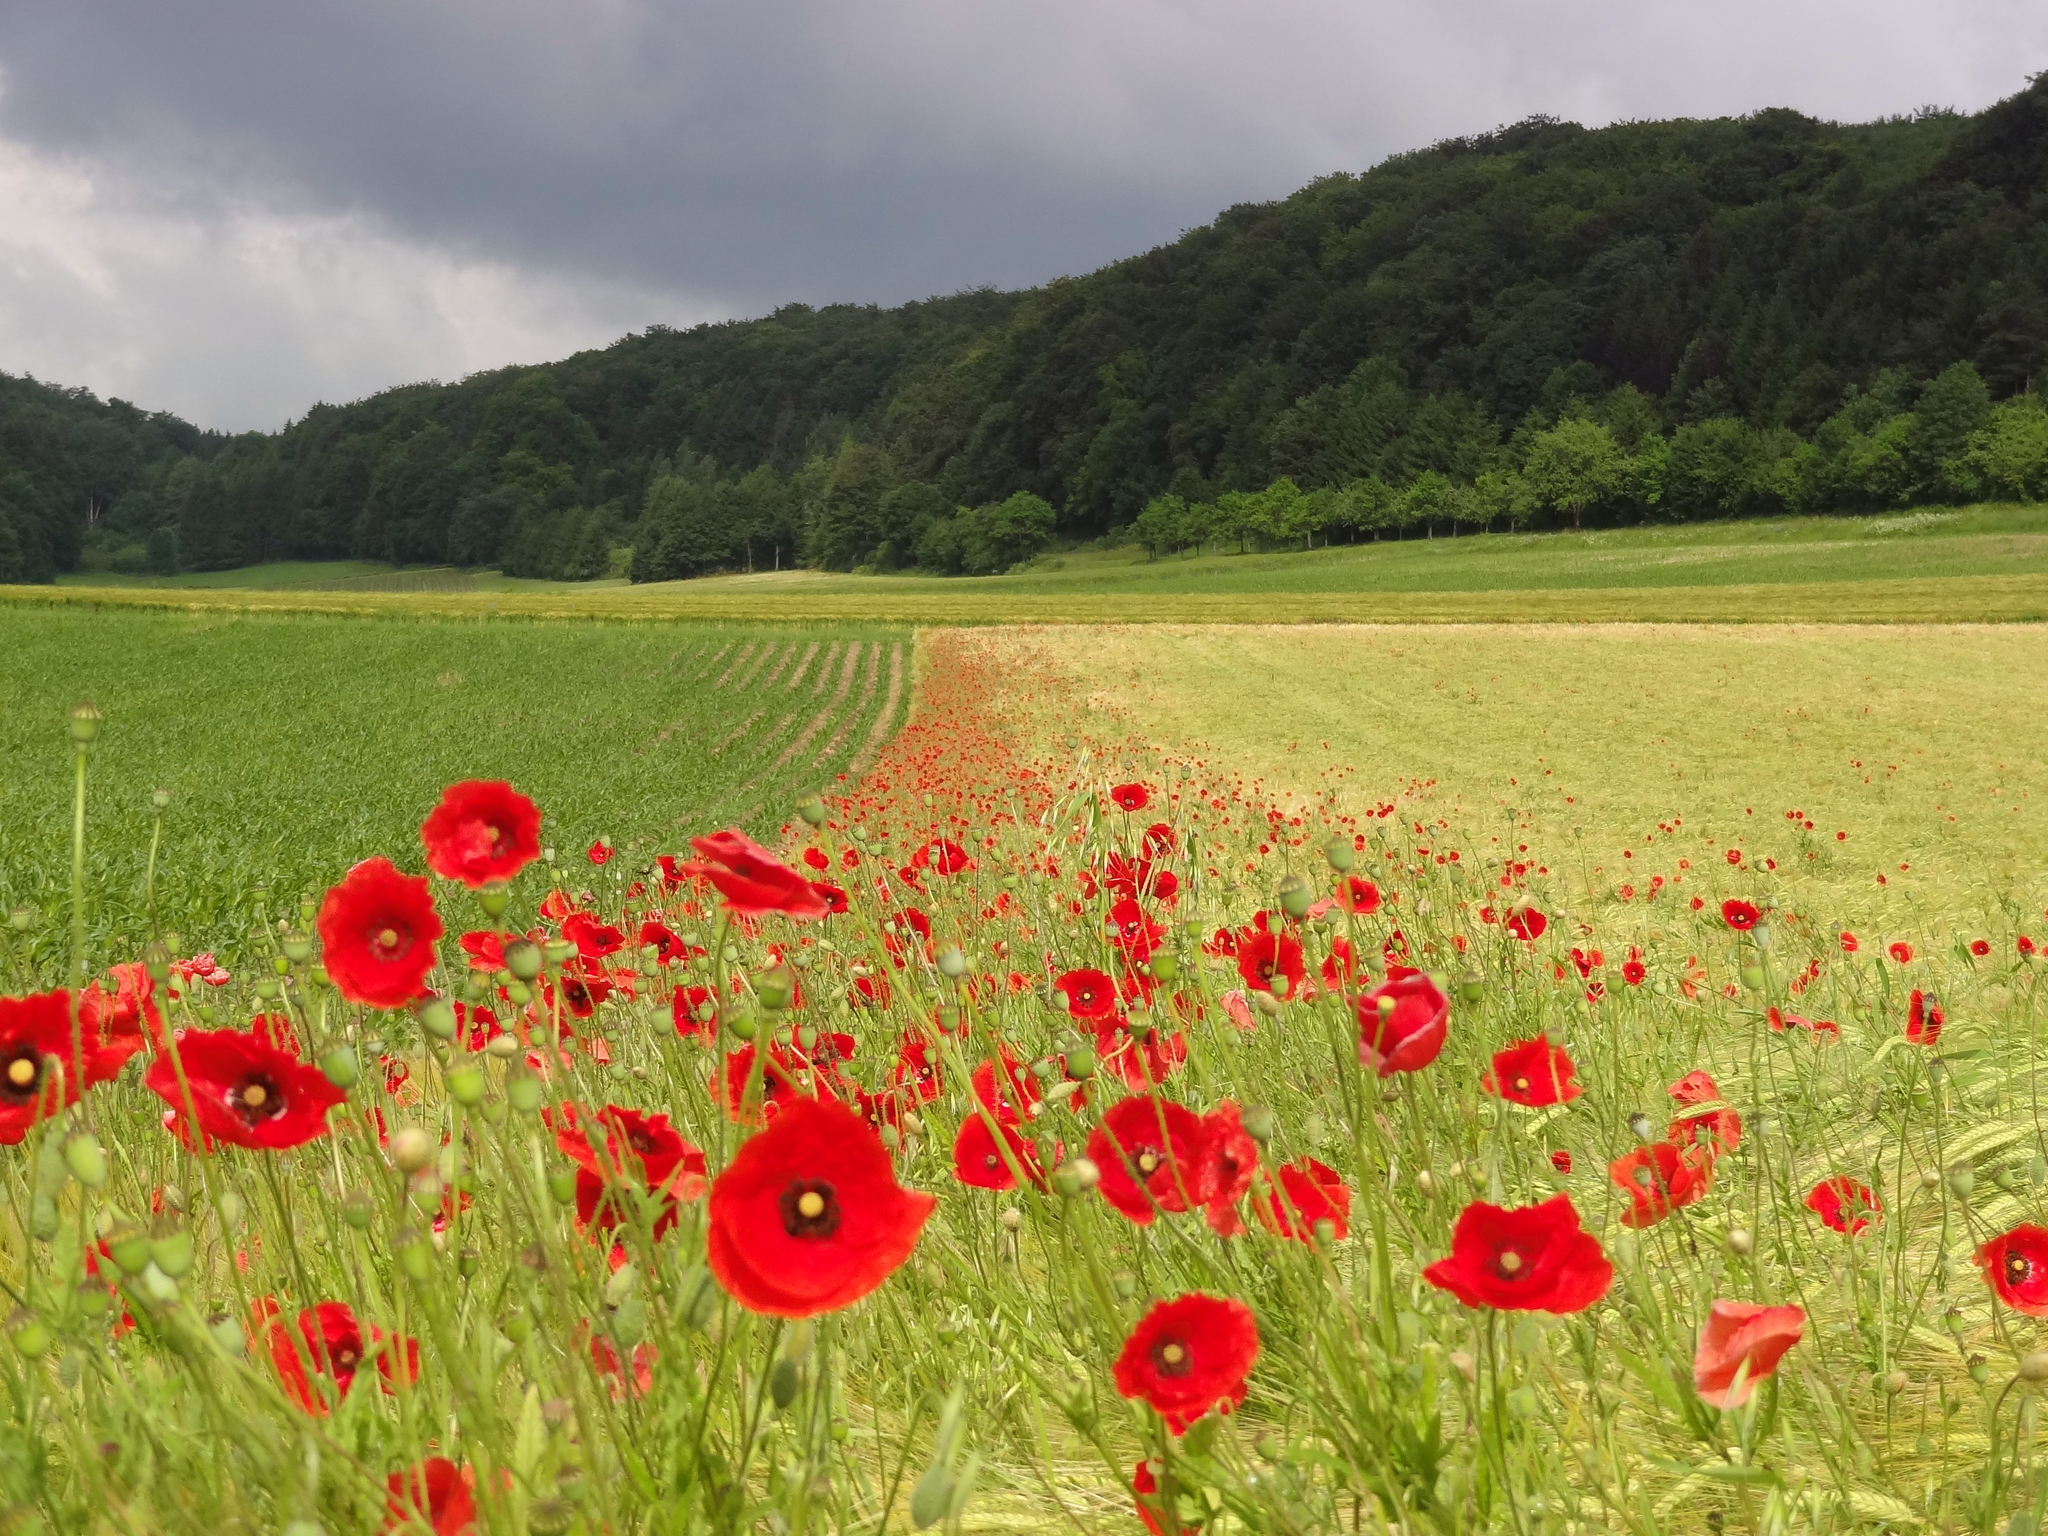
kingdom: Plantae
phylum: Tracheophyta
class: Magnoliopsida
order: Ranunculales
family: Papaveraceae
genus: Papaver
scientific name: Papaver rhoeas
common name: Corn poppy
